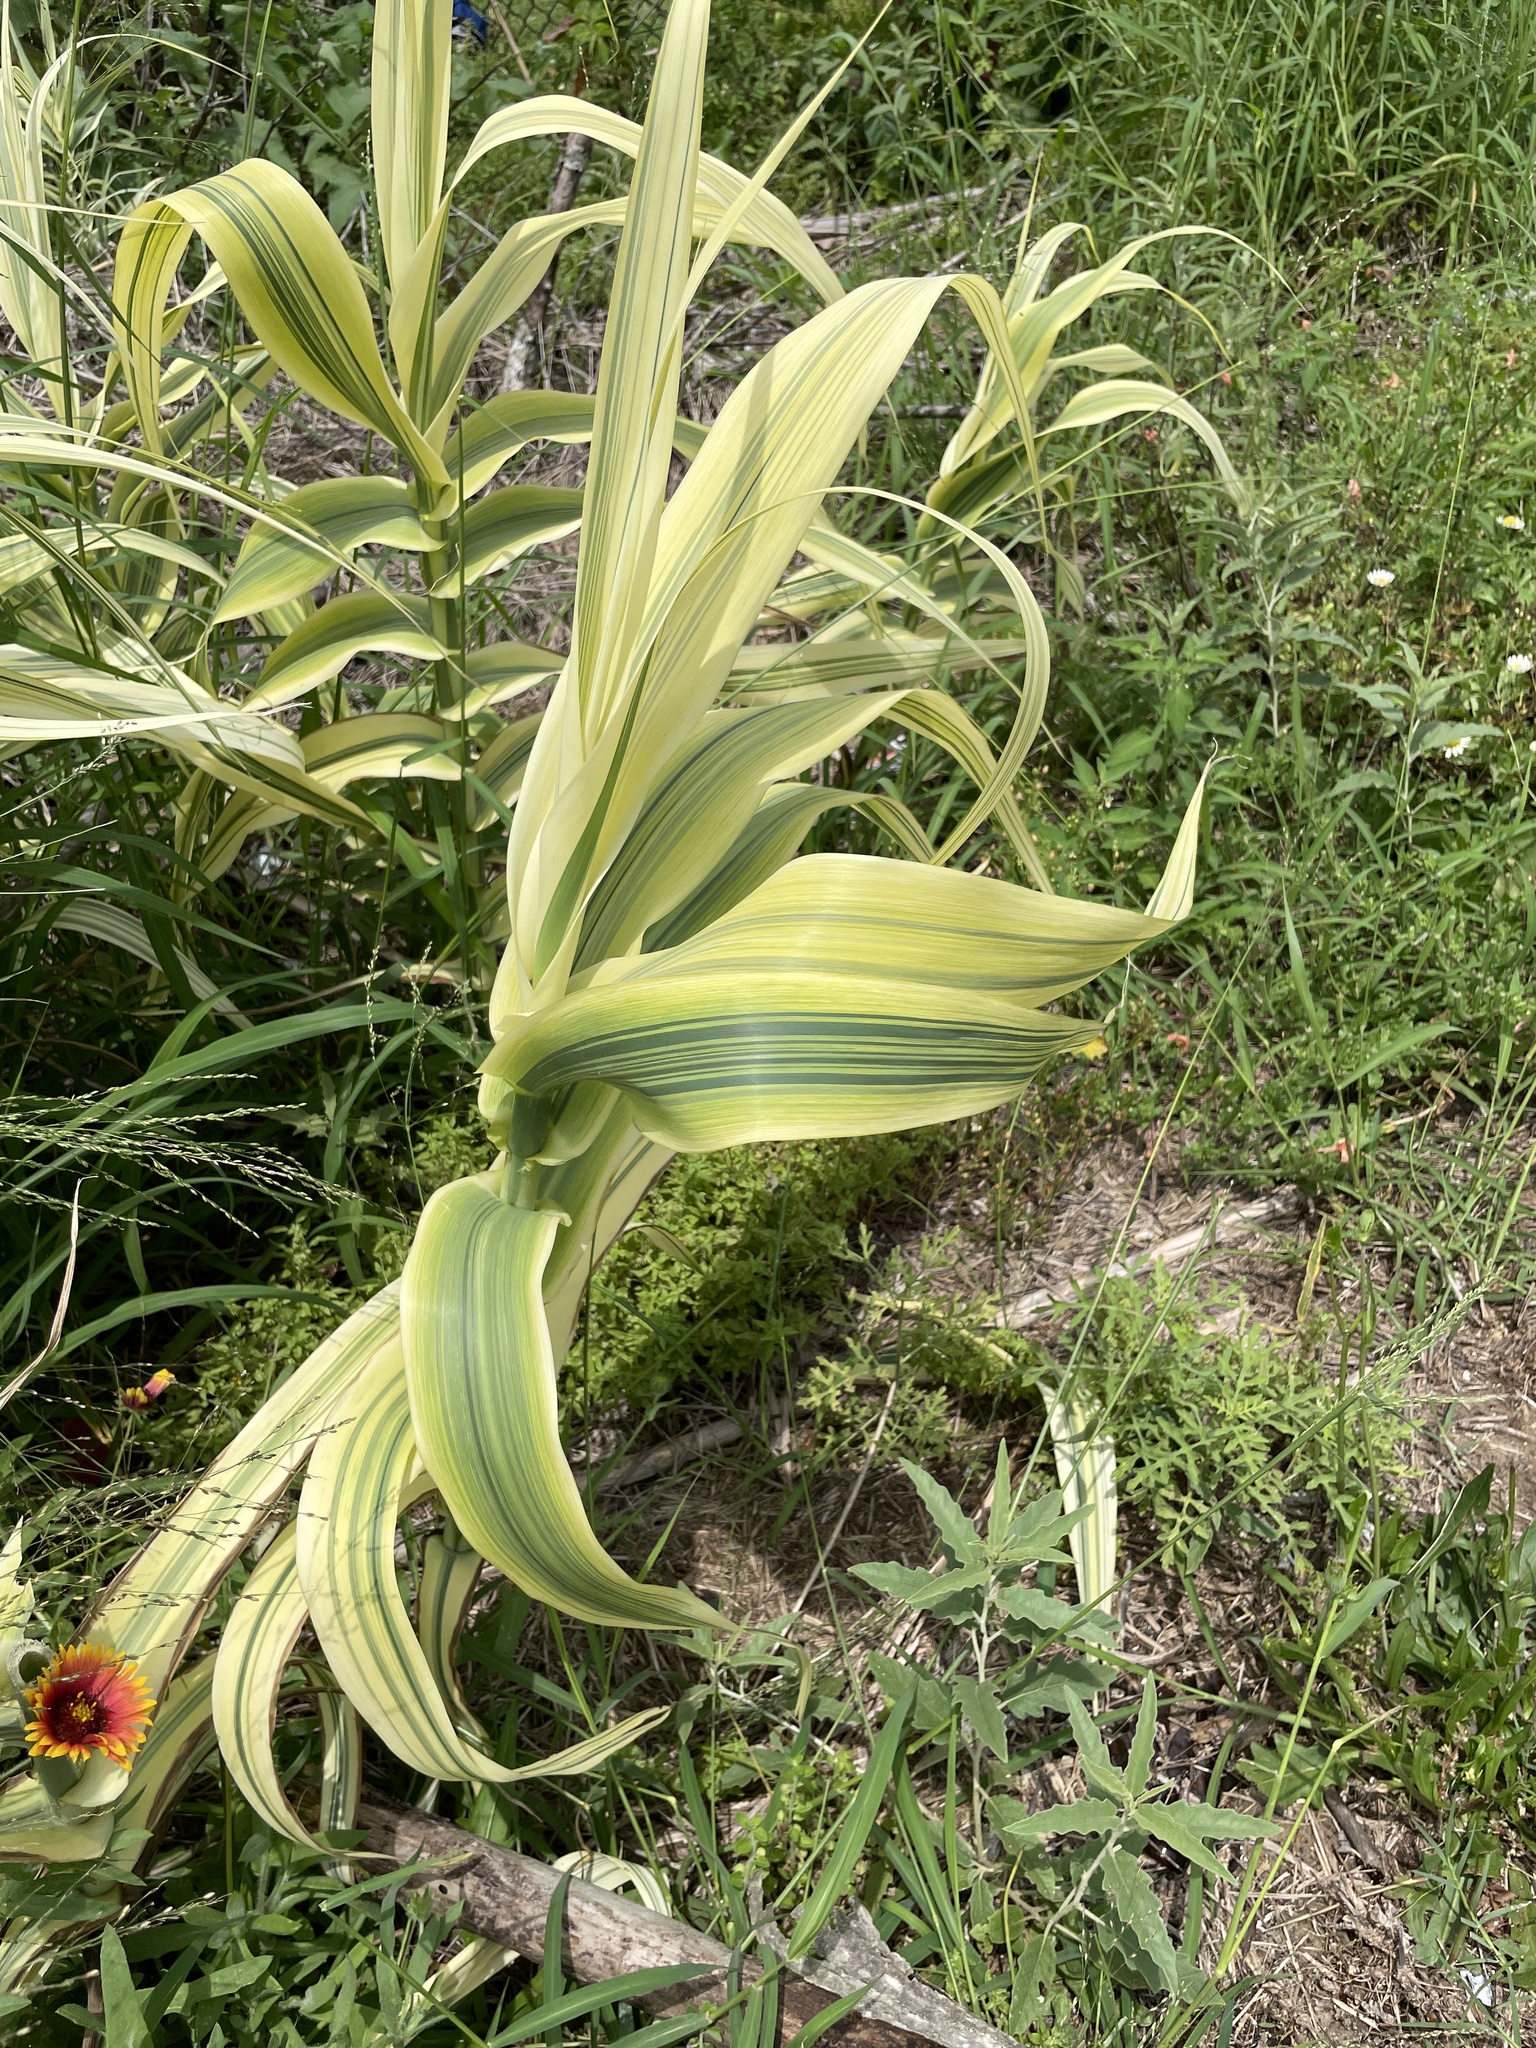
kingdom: Plantae
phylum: Tracheophyta
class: Liliopsida
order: Poales
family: Poaceae
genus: Arundo
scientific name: Arundo donax
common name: Giant reed
